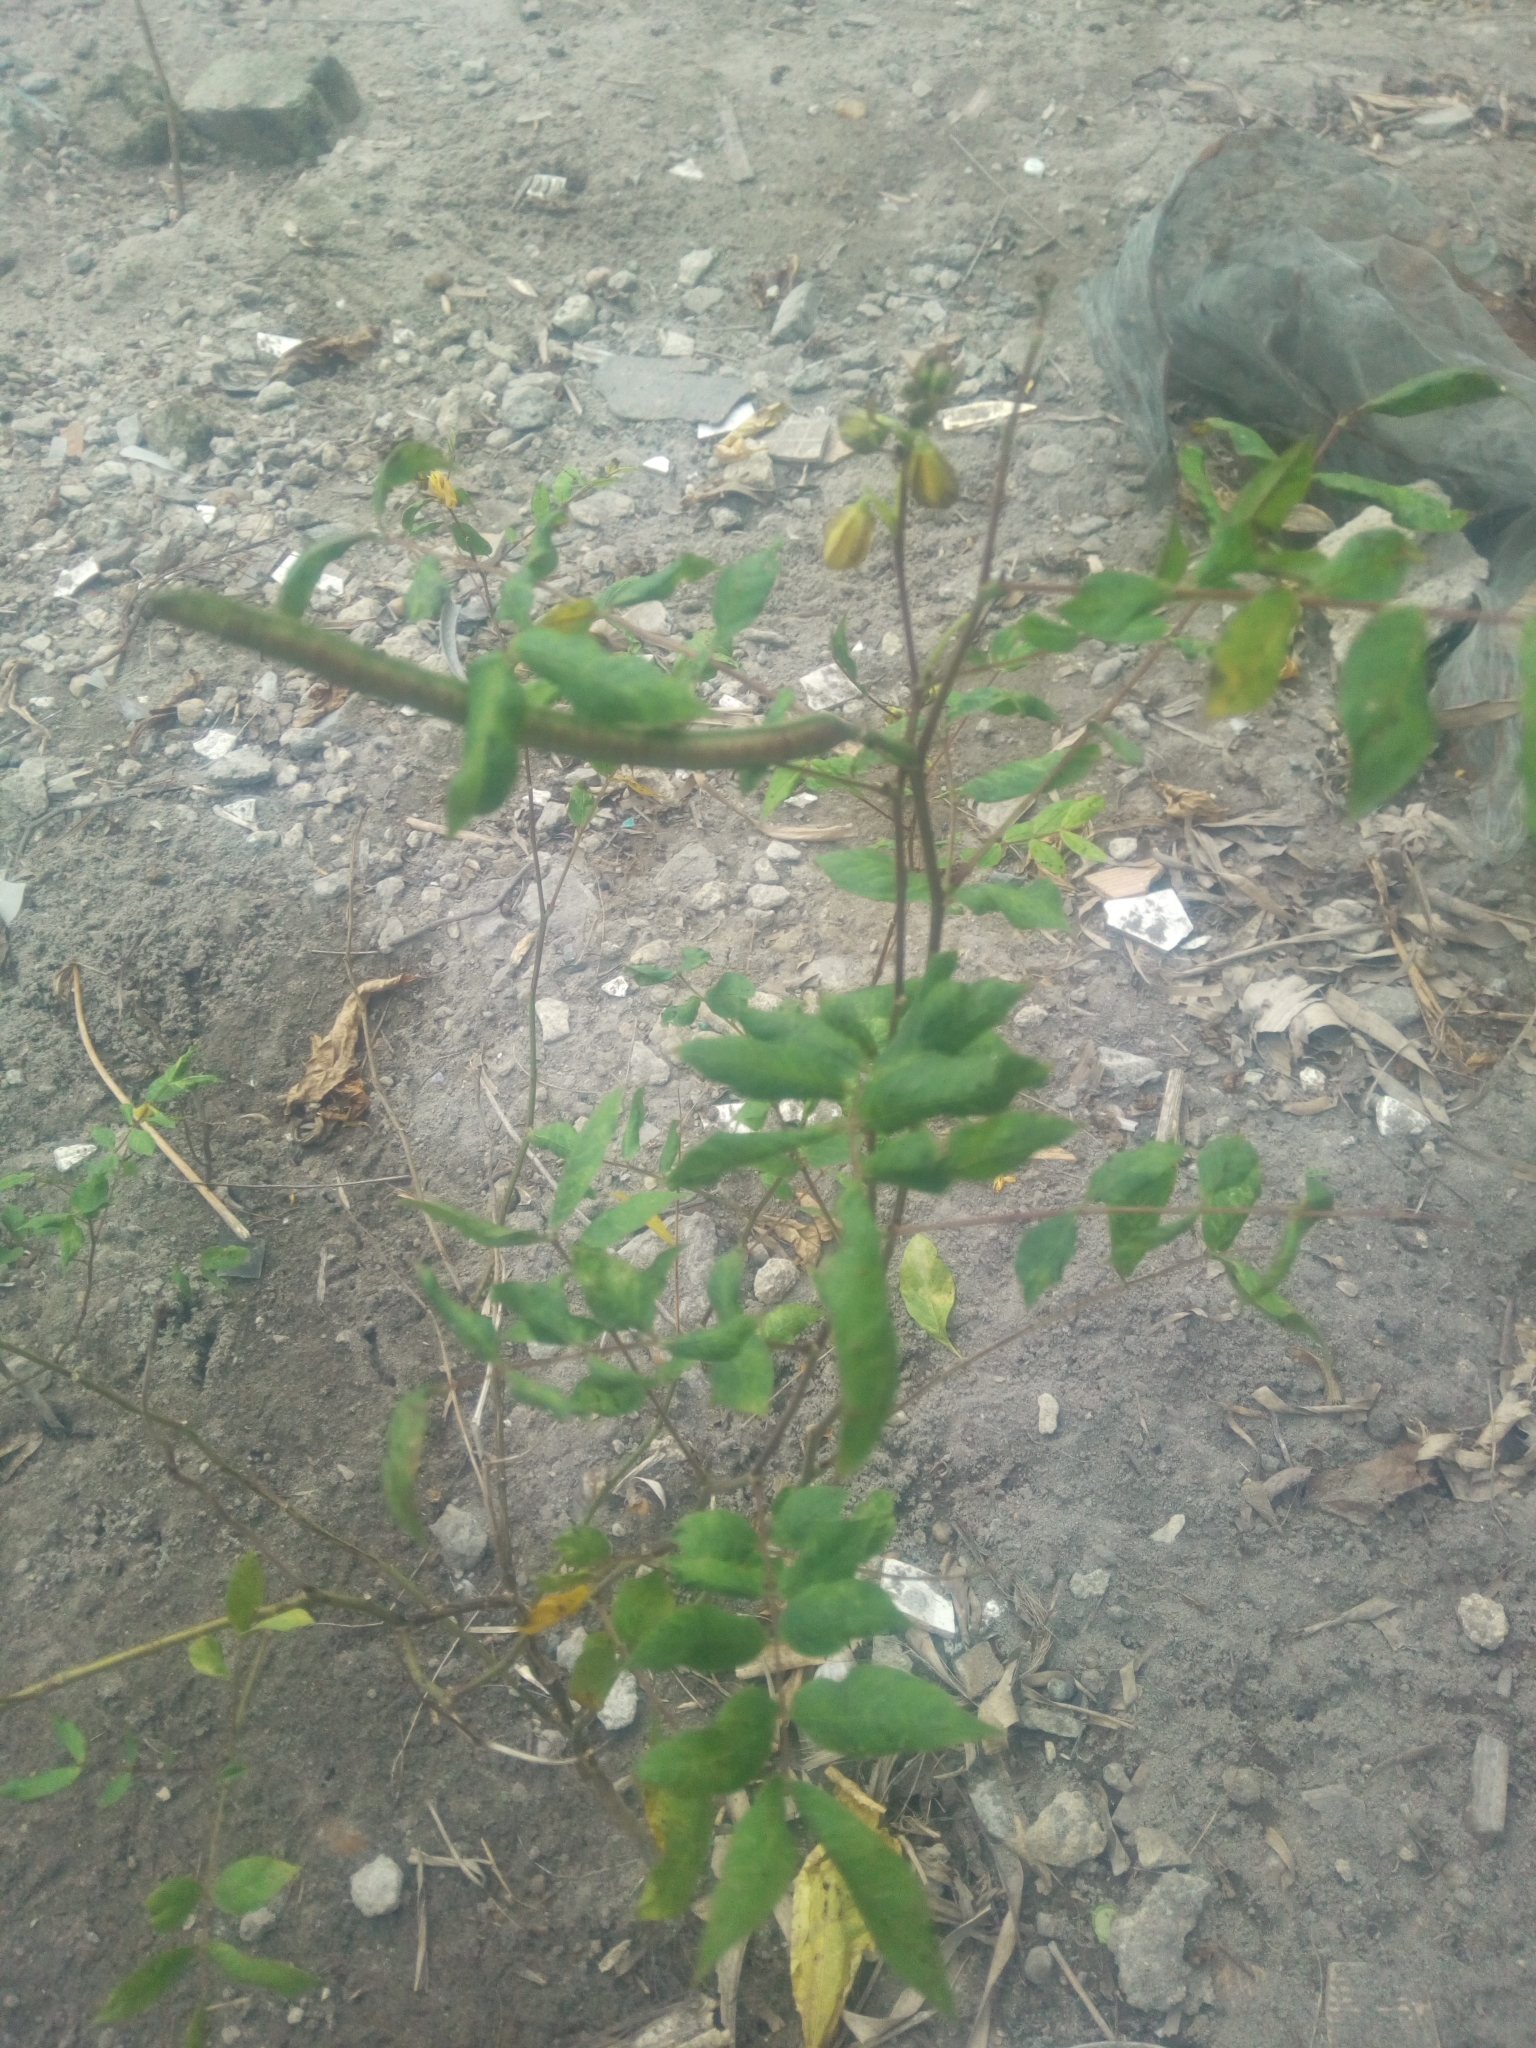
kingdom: Plantae
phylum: Tracheophyta
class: Magnoliopsida
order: Fabales
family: Fabaceae
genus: Senna
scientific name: Senna occidentalis
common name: Septicweed
